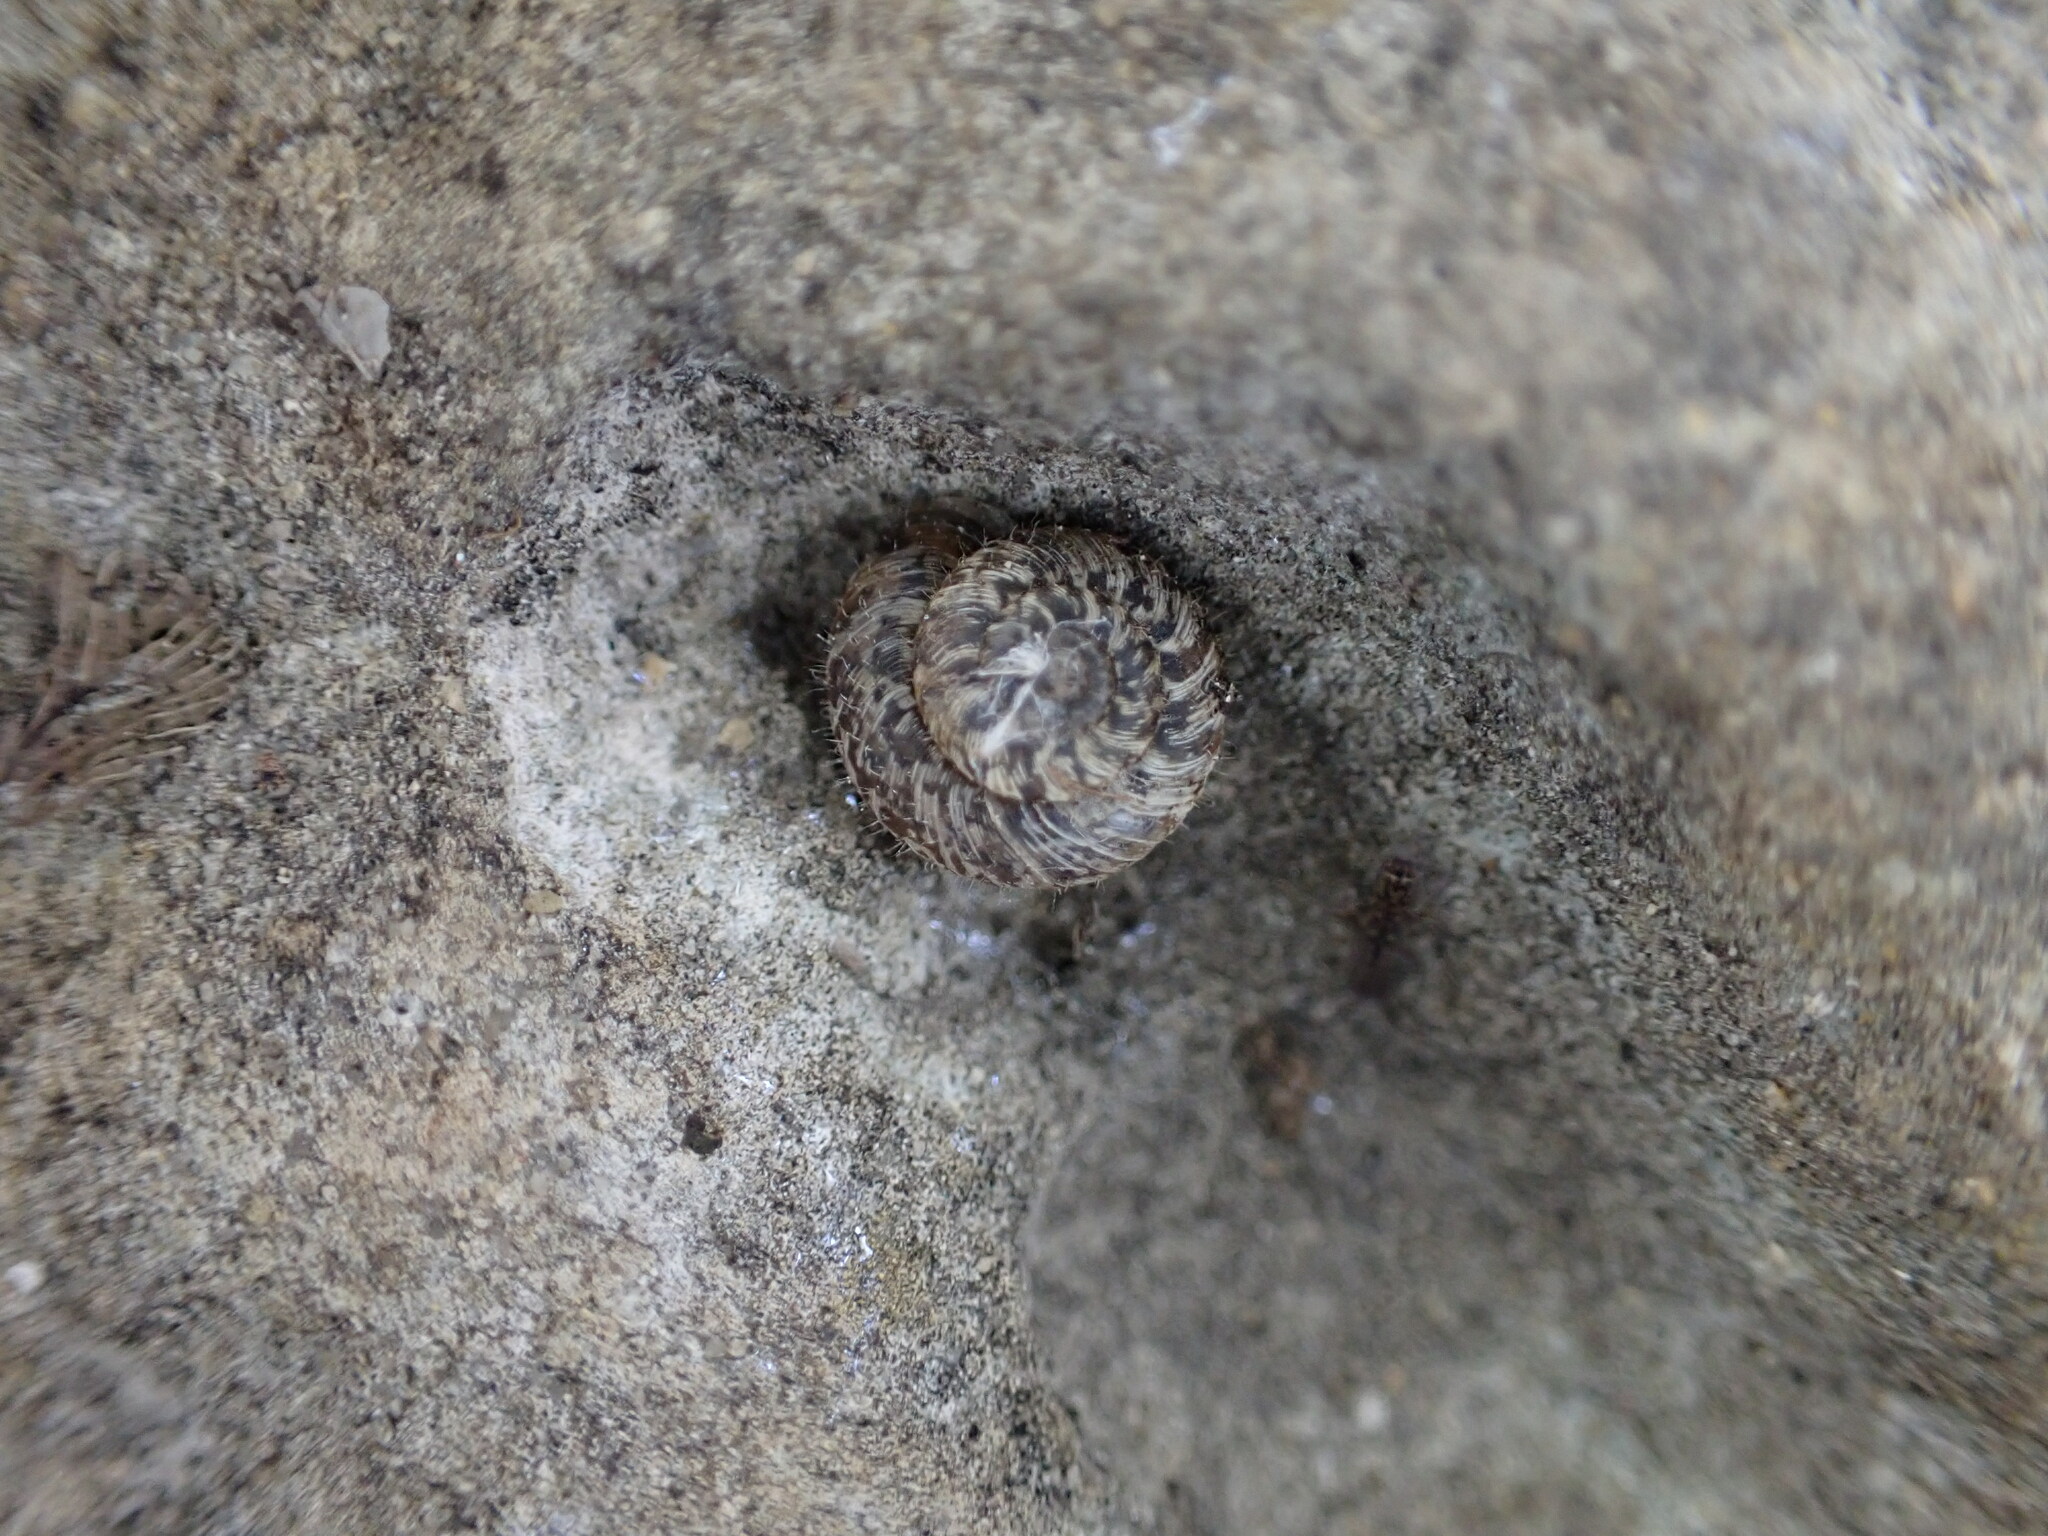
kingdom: Animalia
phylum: Mollusca
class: Gastropoda
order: Stylommatophora
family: Geomitridae
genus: Xerotricha
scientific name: Xerotricha conspurcata
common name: Snail
